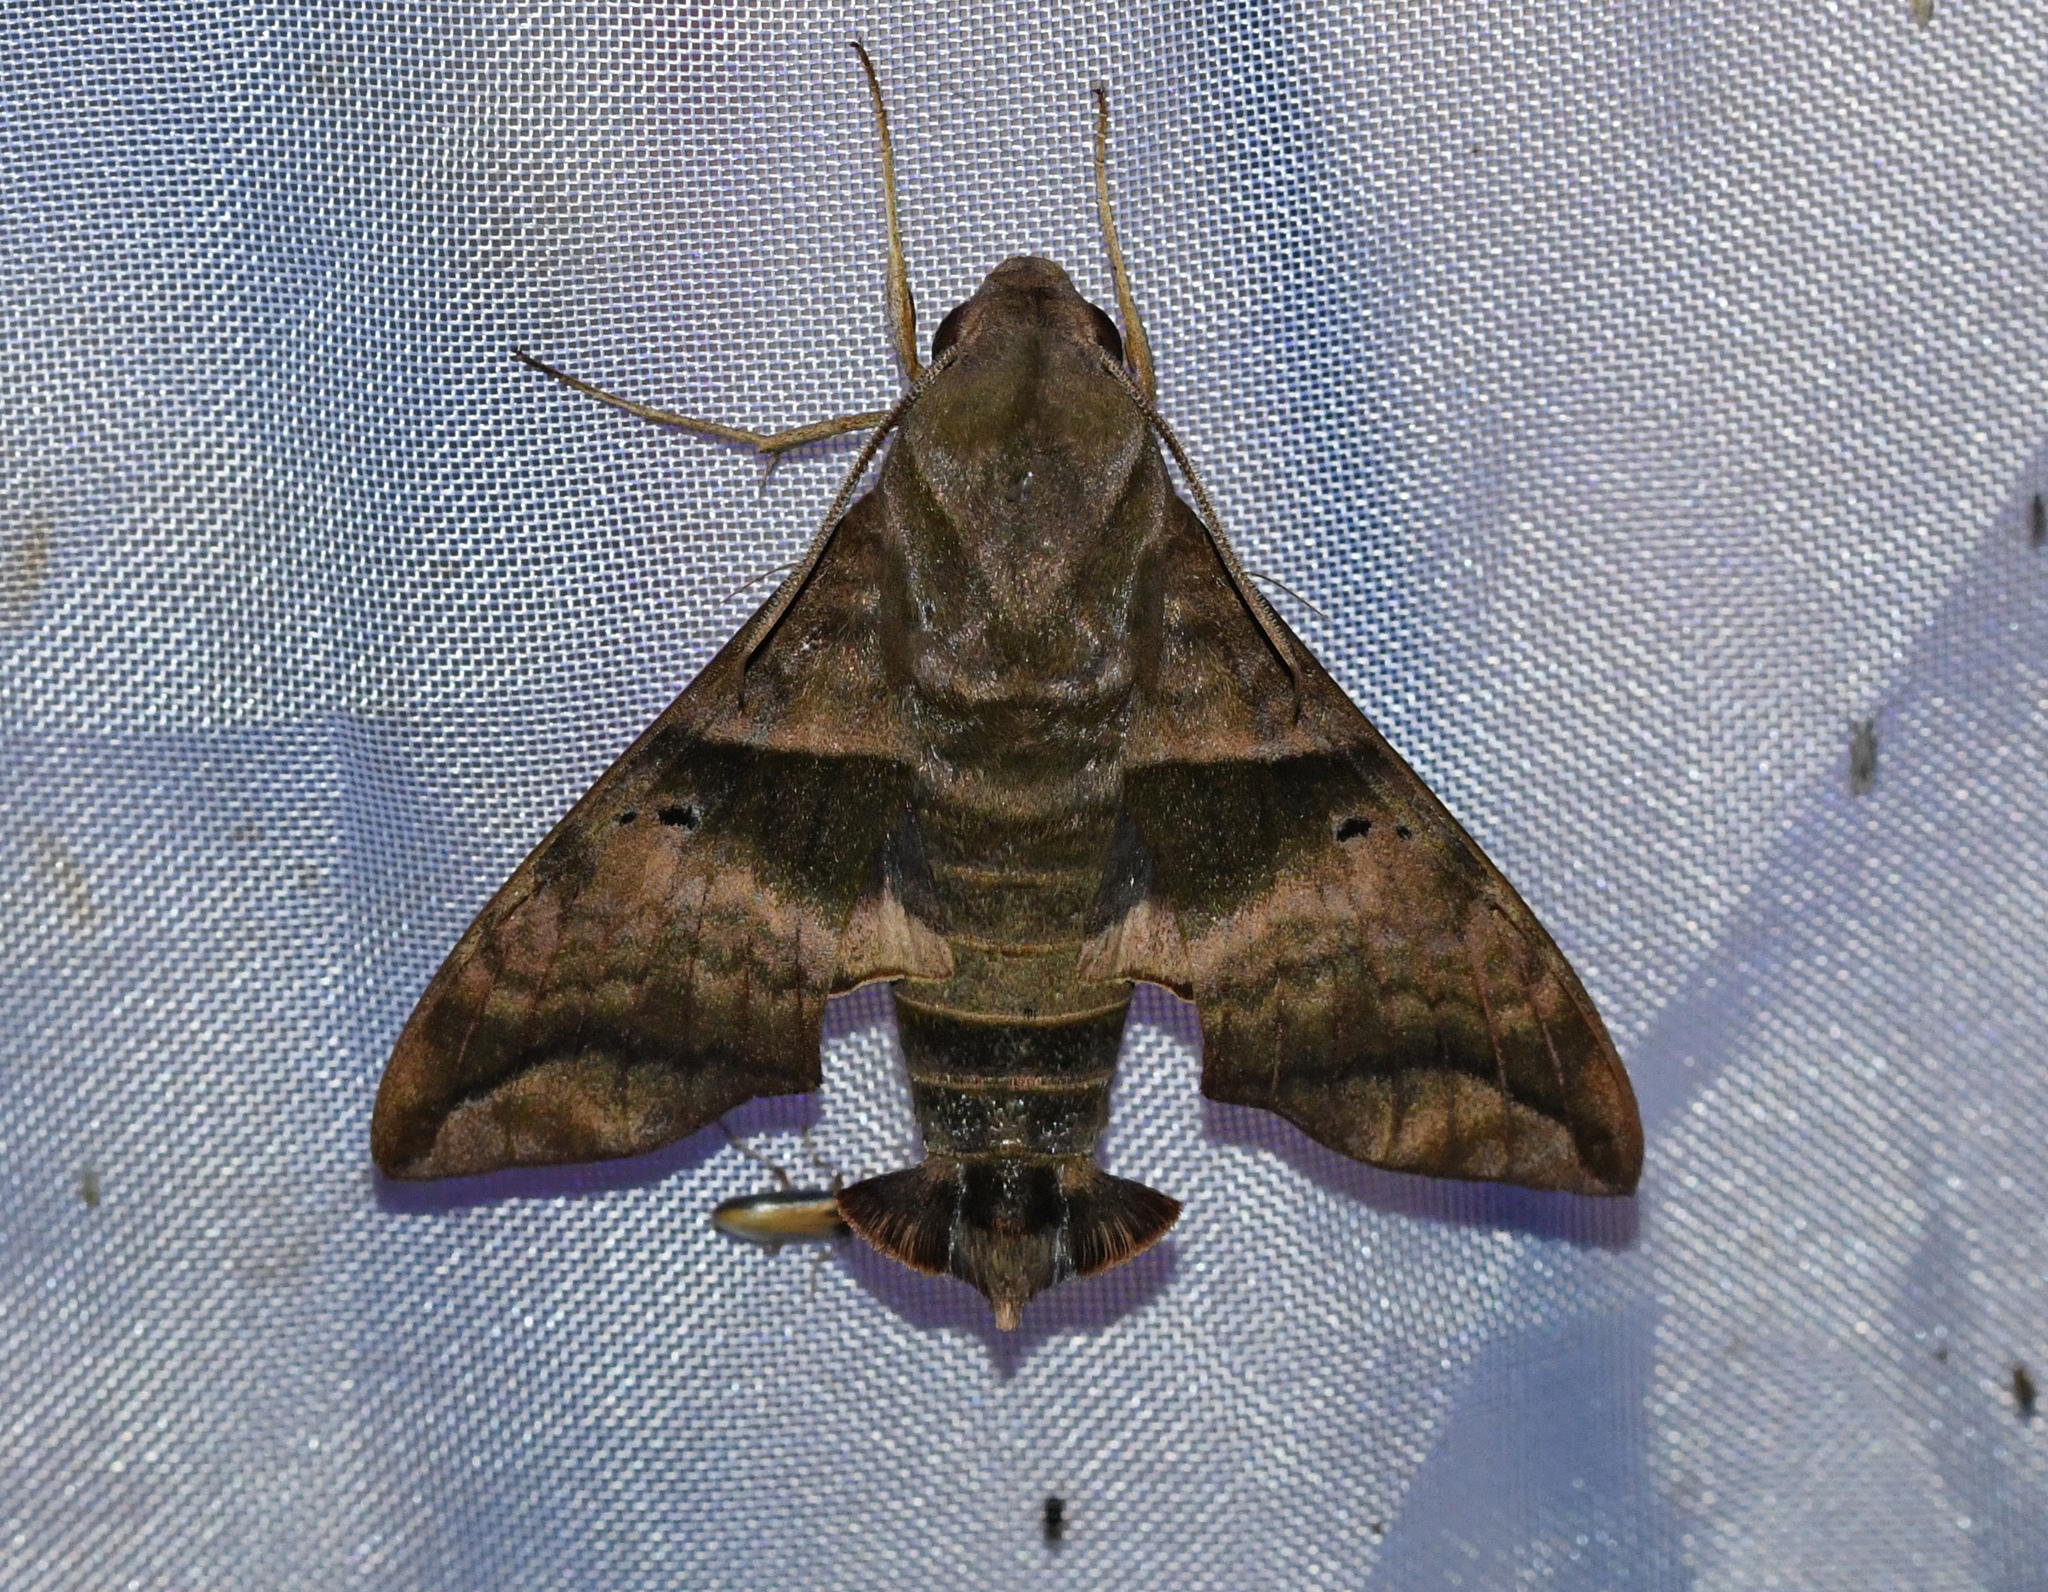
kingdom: Animalia
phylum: Arthropoda
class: Insecta
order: Lepidoptera
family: Sphingidae
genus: Perigonia
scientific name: Perigonia lusca
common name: Half-blind sphinx
